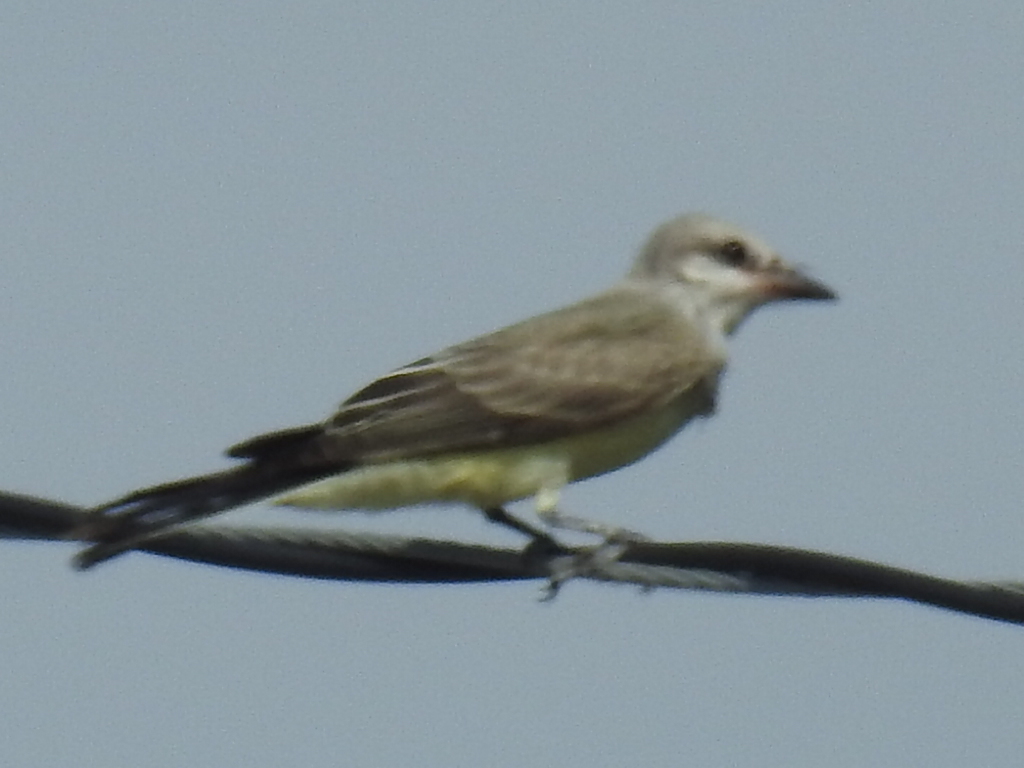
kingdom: Animalia
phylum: Chordata
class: Aves
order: Passeriformes
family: Tyrannidae
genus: Tyrannus
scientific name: Tyrannus verticalis
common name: Western kingbird
